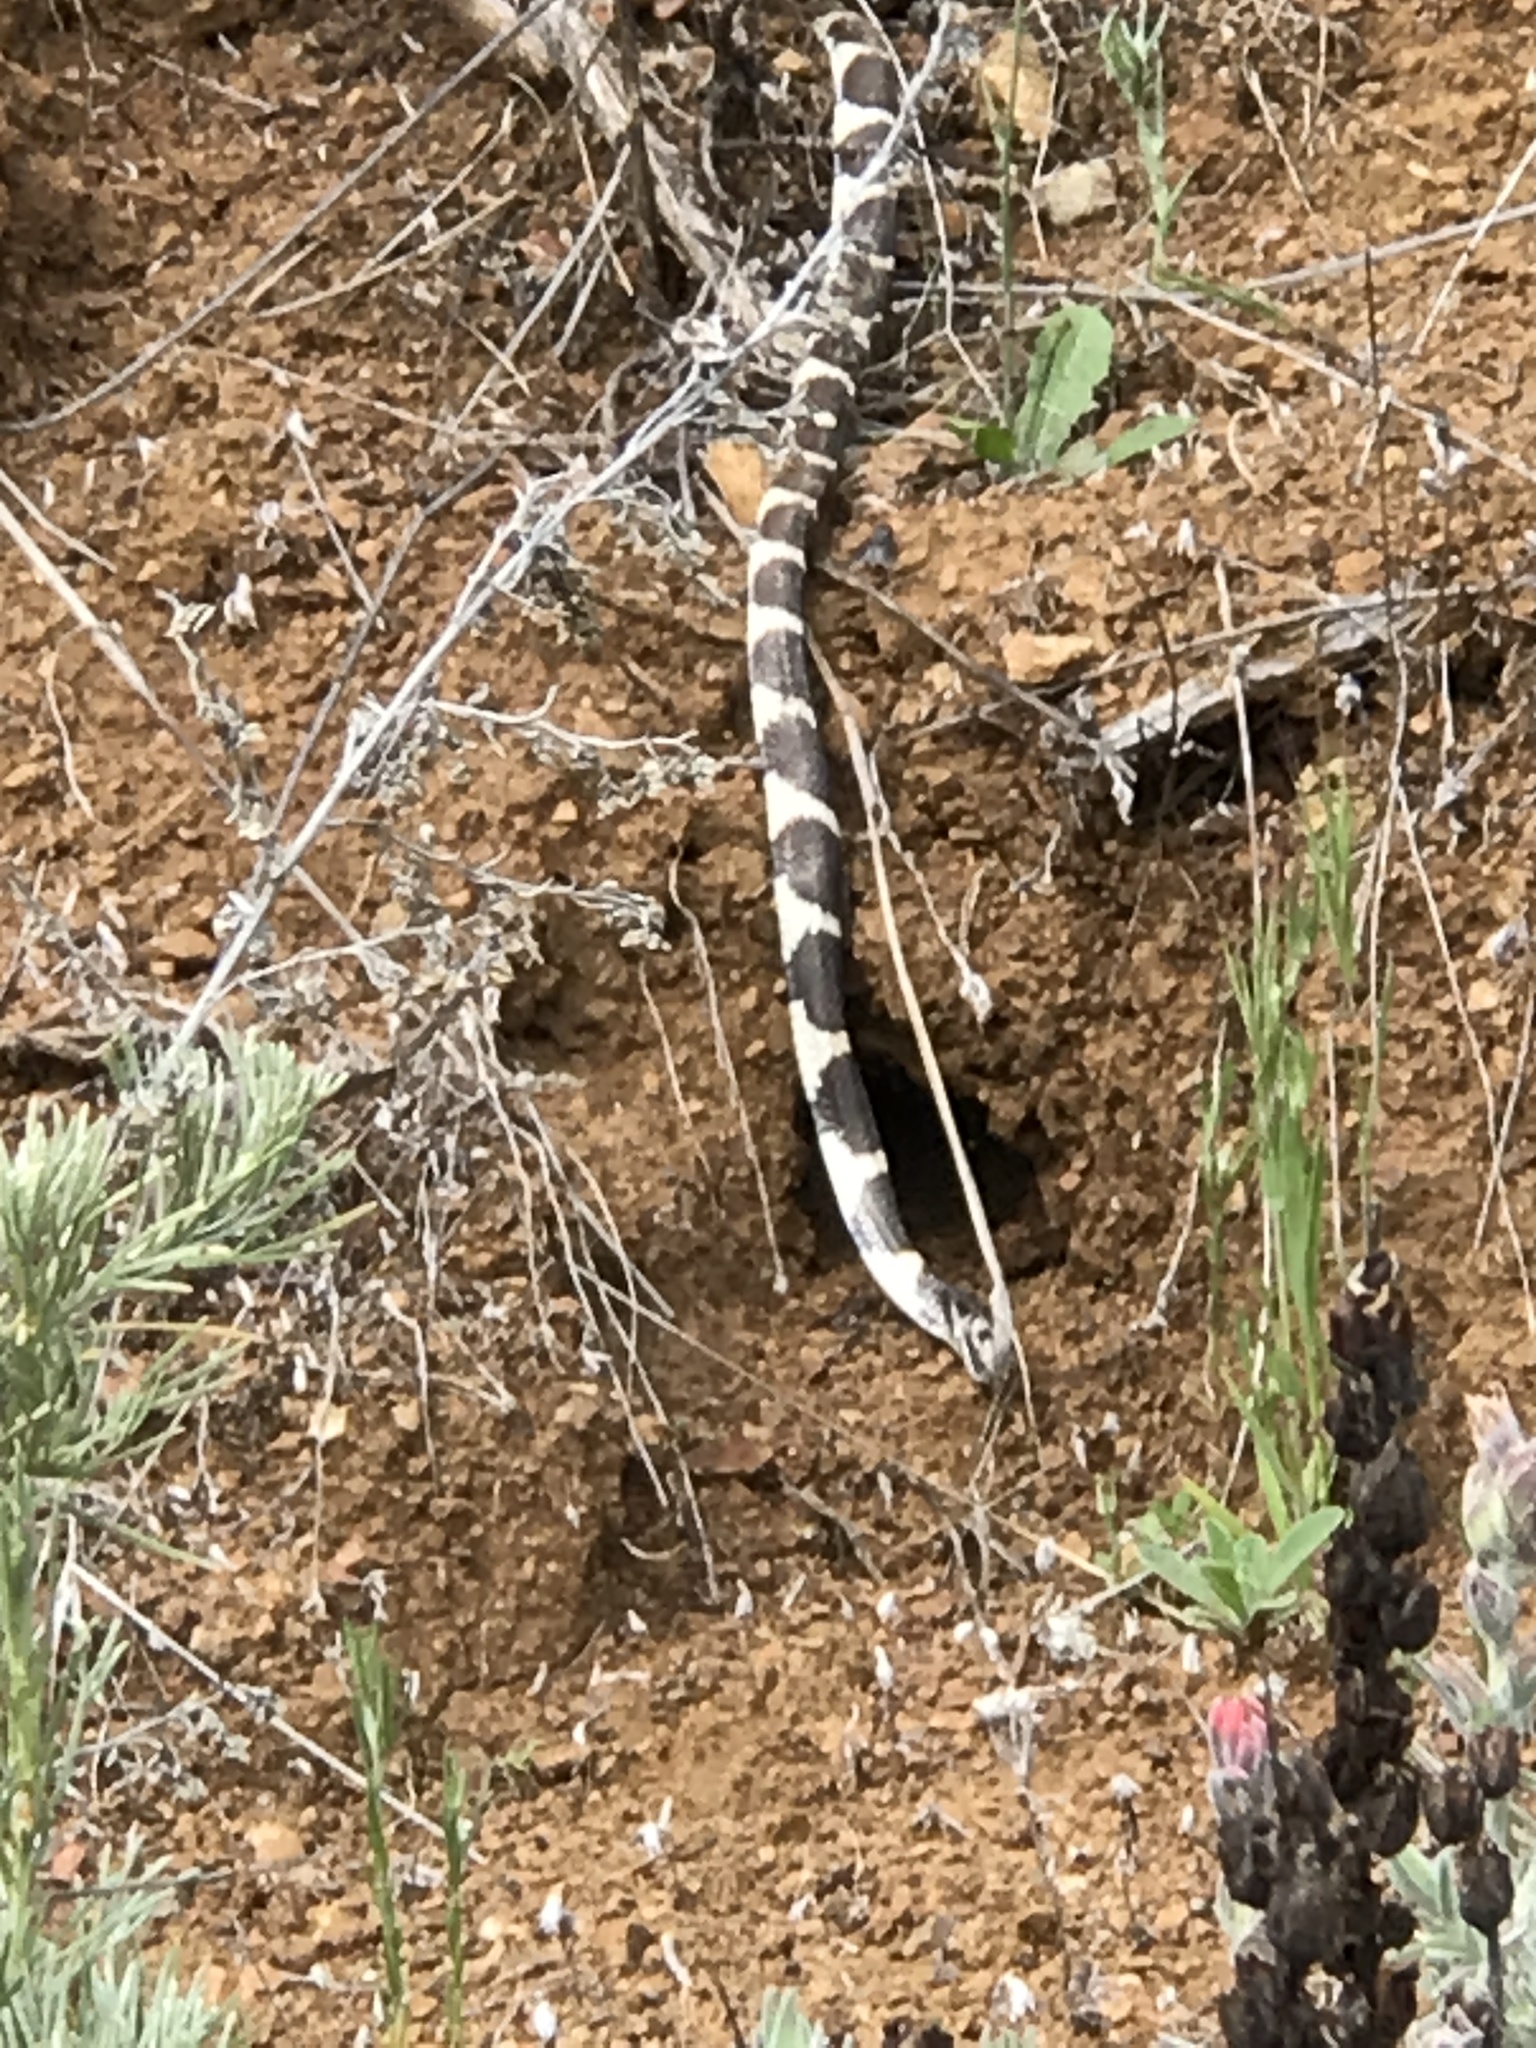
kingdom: Animalia
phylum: Chordata
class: Squamata
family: Colubridae
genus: Lampropeltis
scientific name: Lampropeltis californiae
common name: California kingsnake
